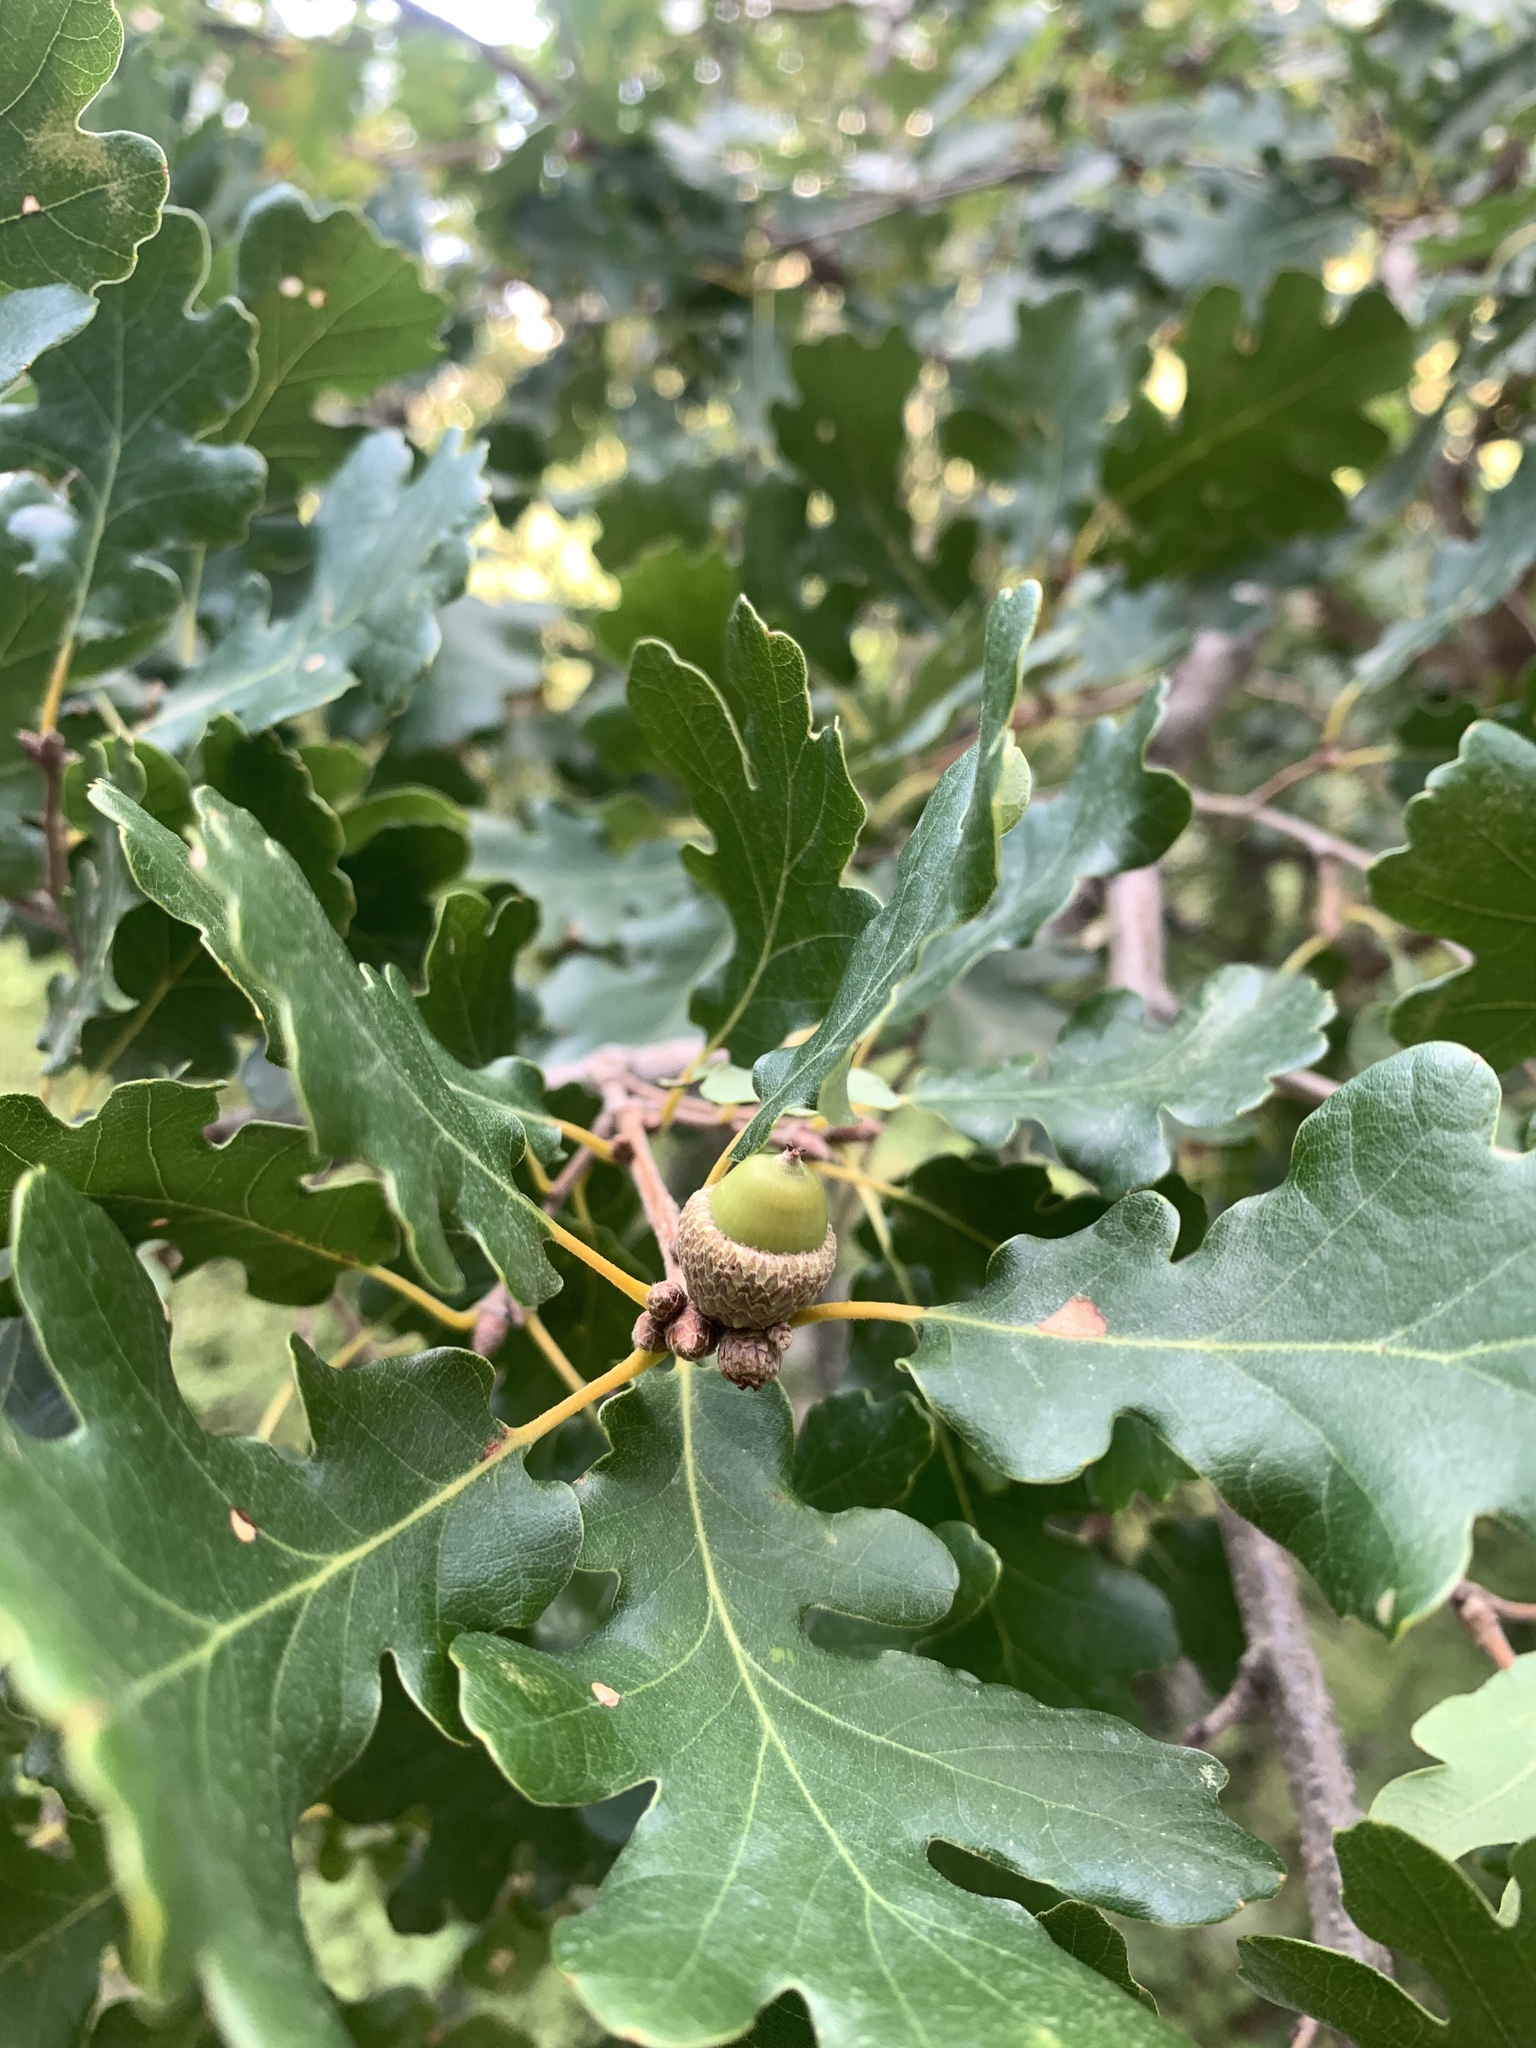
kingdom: Plantae
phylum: Tracheophyta
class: Magnoliopsida
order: Fagales
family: Fagaceae
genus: Quercus
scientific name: Quercus pubescens
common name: Downy oak
